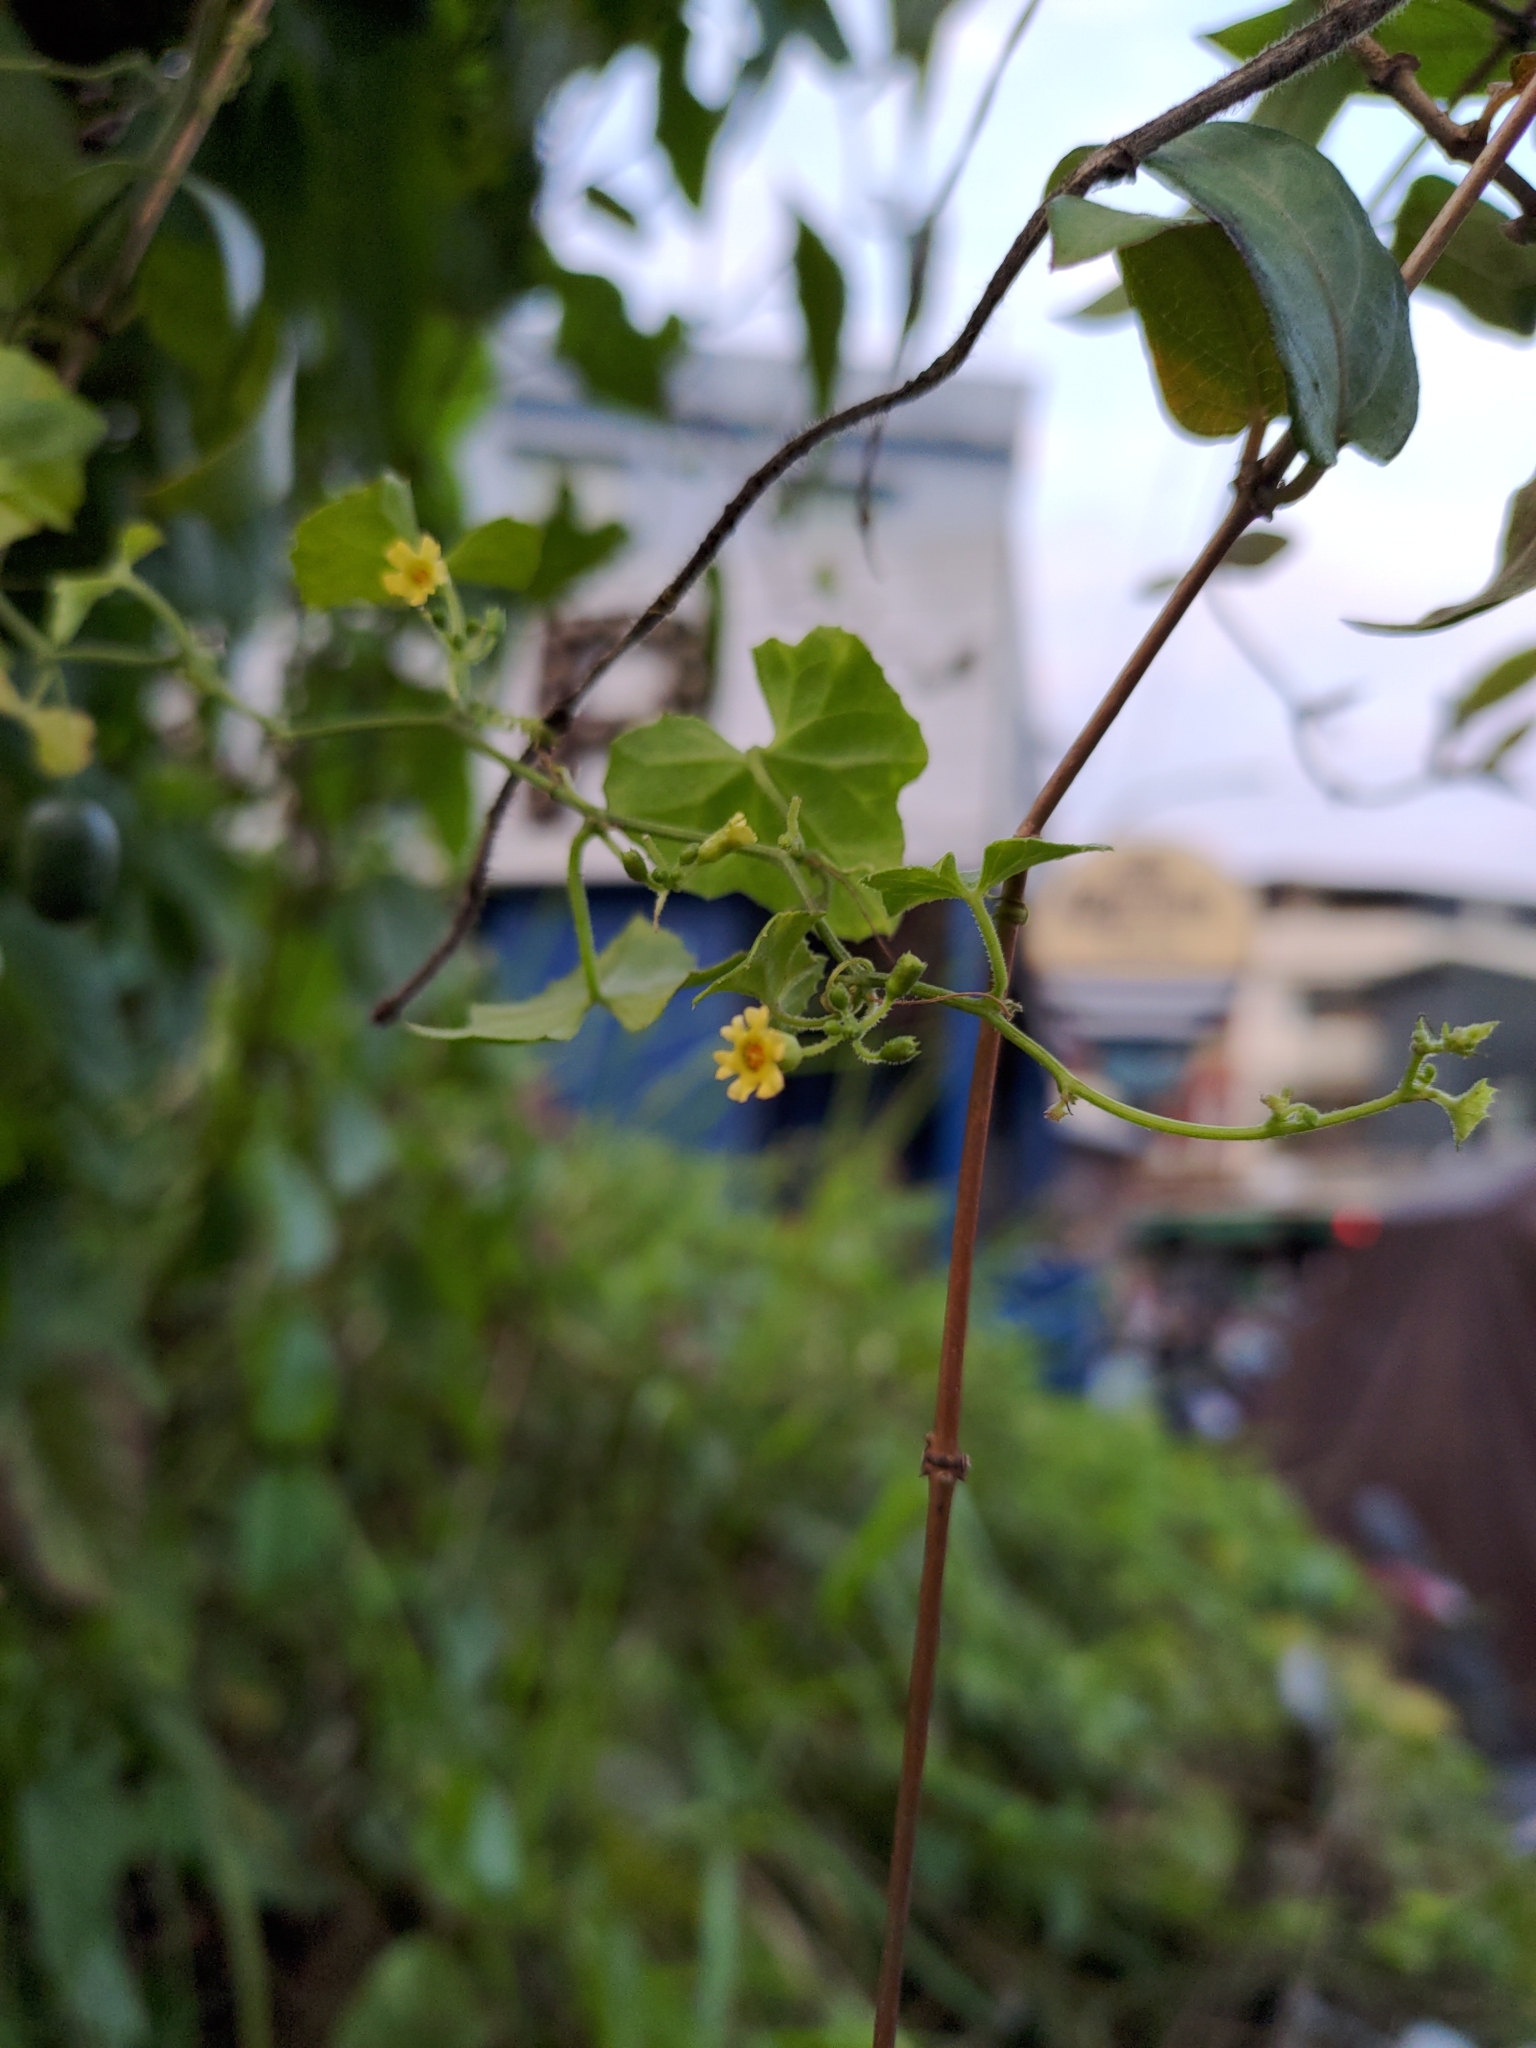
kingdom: Plantae
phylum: Tracheophyta
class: Magnoliopsida
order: Cucurbitales
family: Cucurbitaceae
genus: Melothria
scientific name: Melothria pendula
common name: Creeping-cucumber
